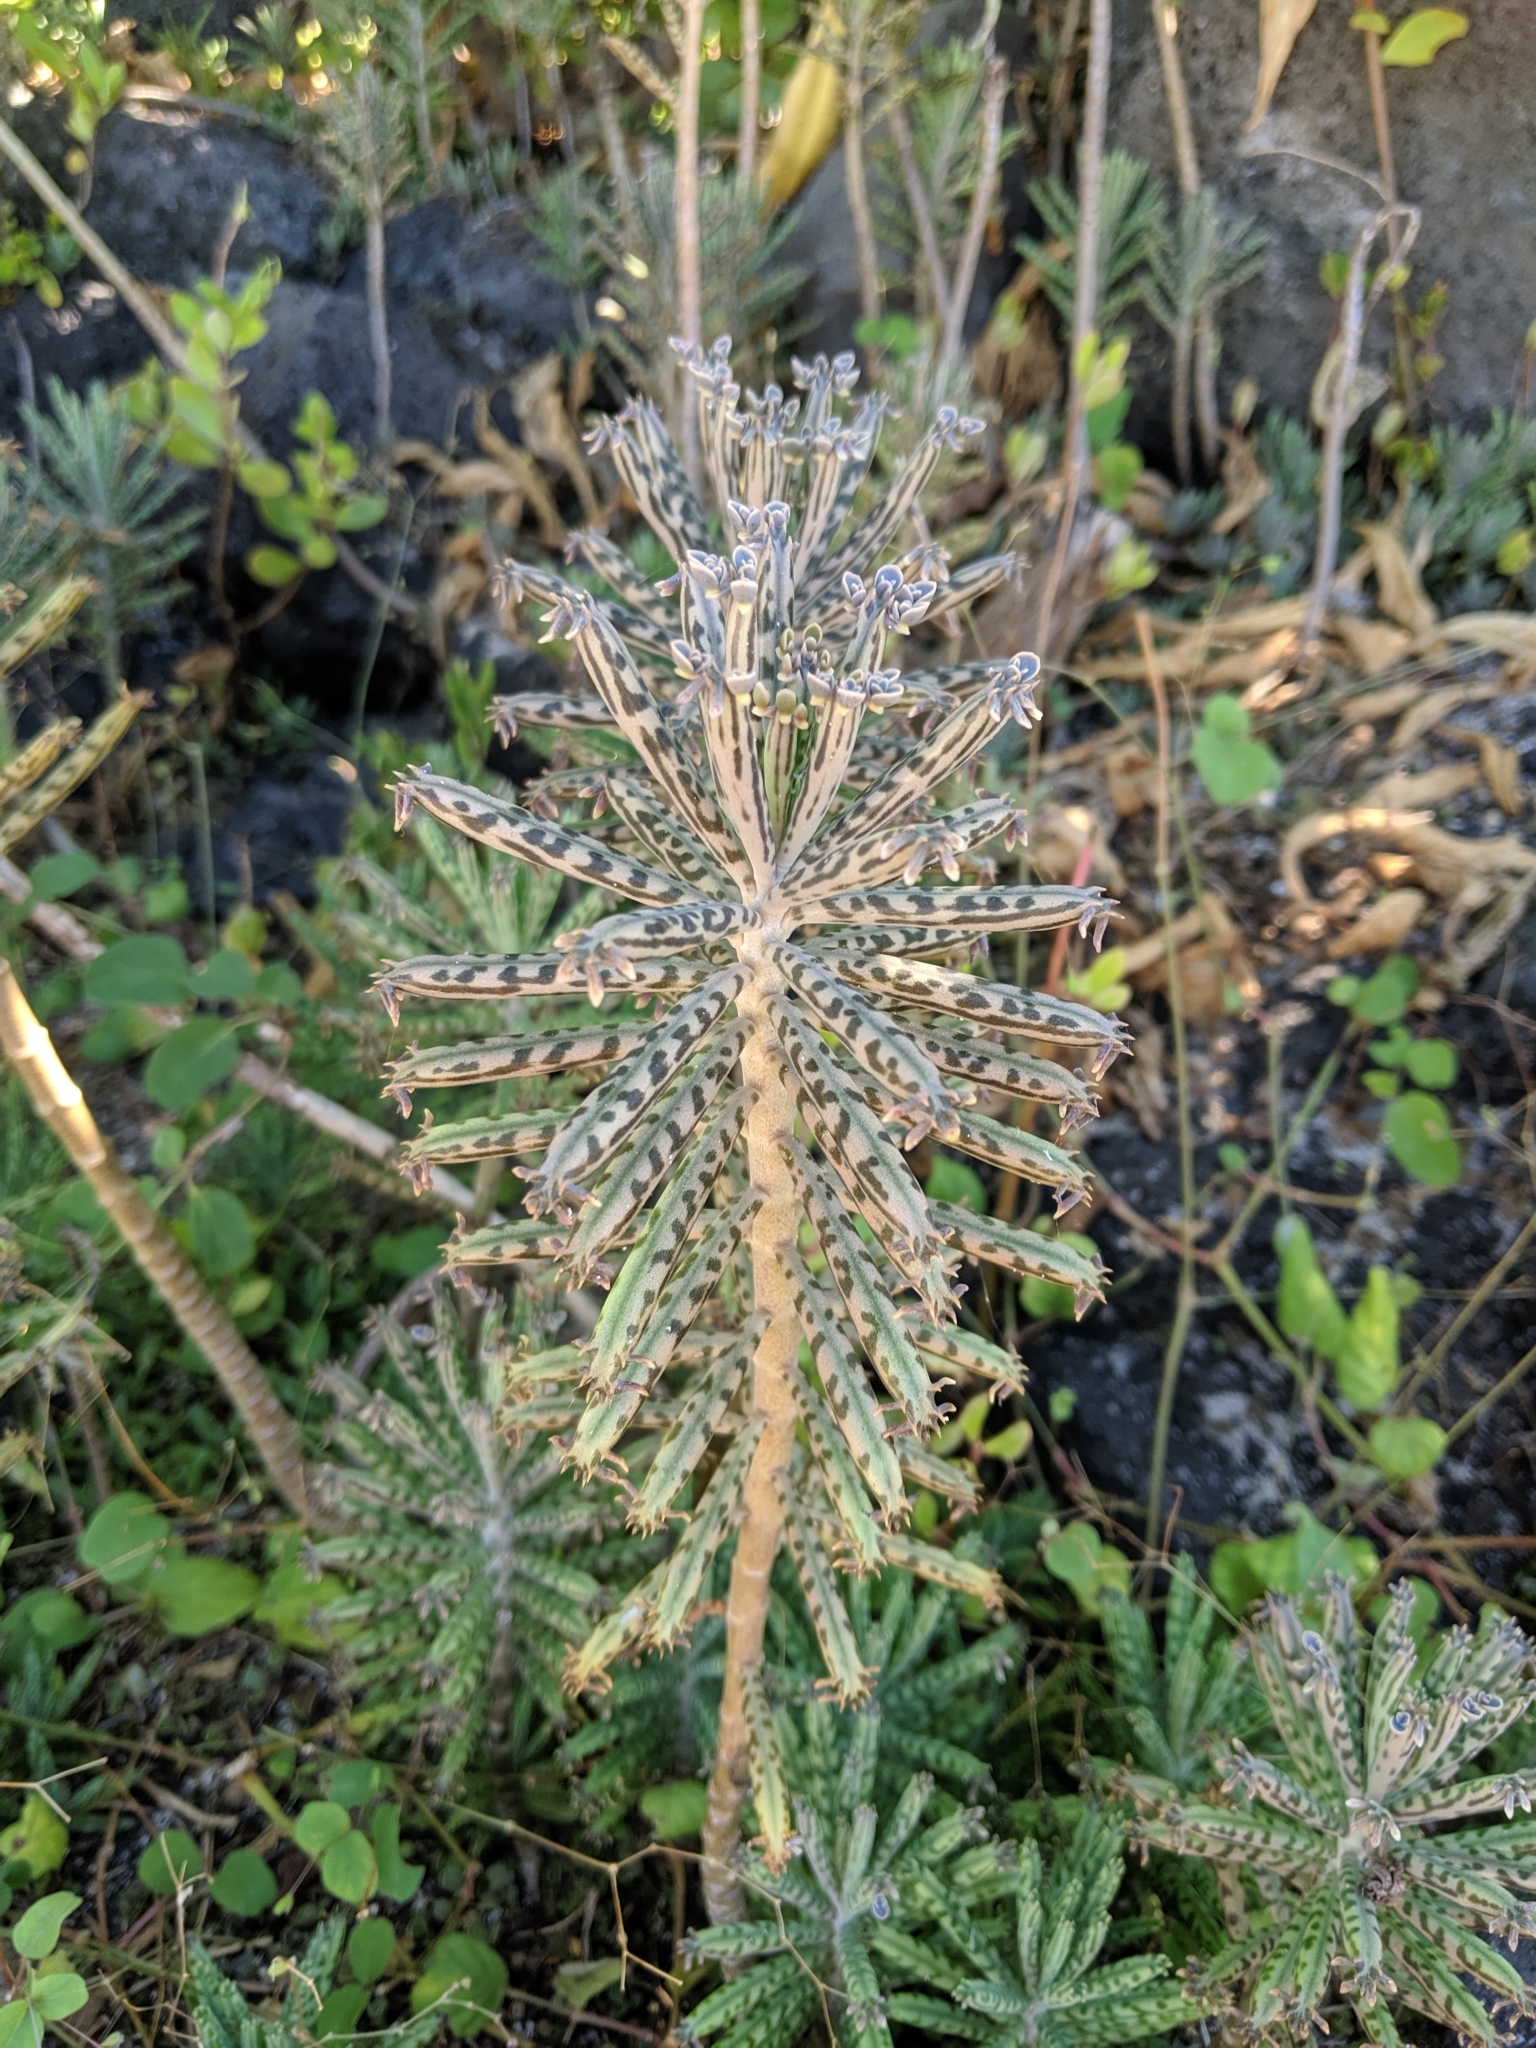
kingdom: Plantae
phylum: Tracheophyta
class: Magnoliopsida
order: Saxifragales
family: Crassulaceae
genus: Kalanchoe
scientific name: Kalanchoe delagoensis
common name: Chandelier plant
